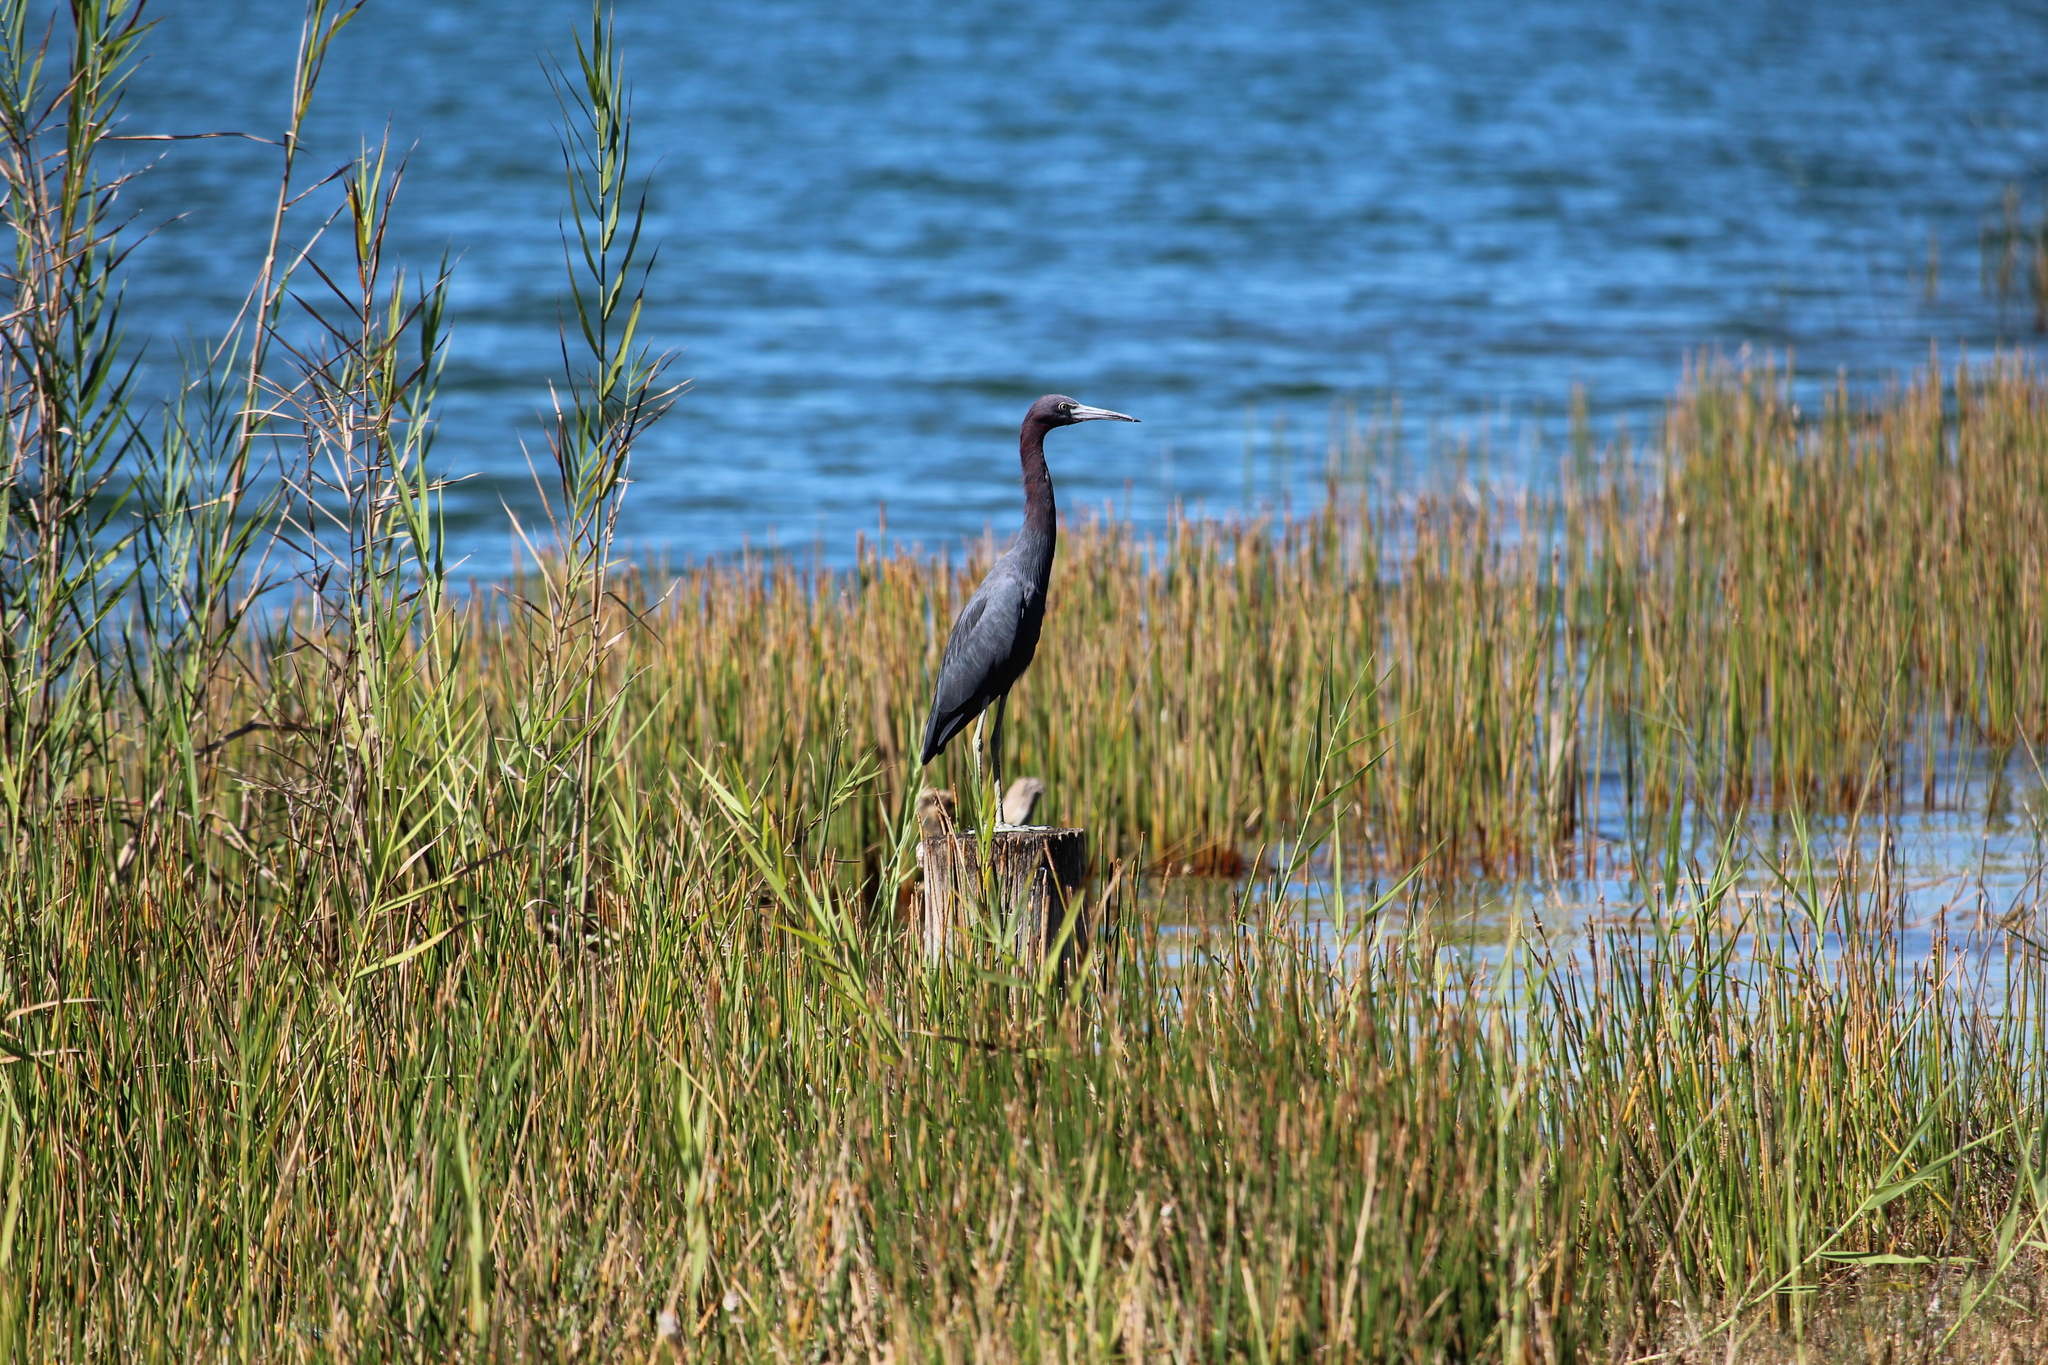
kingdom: Animalia
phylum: Chordata
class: Aves
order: Pelecaniformes
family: Ardeidae
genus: Egretta
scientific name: Egretta caerulea
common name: Little blue heron
